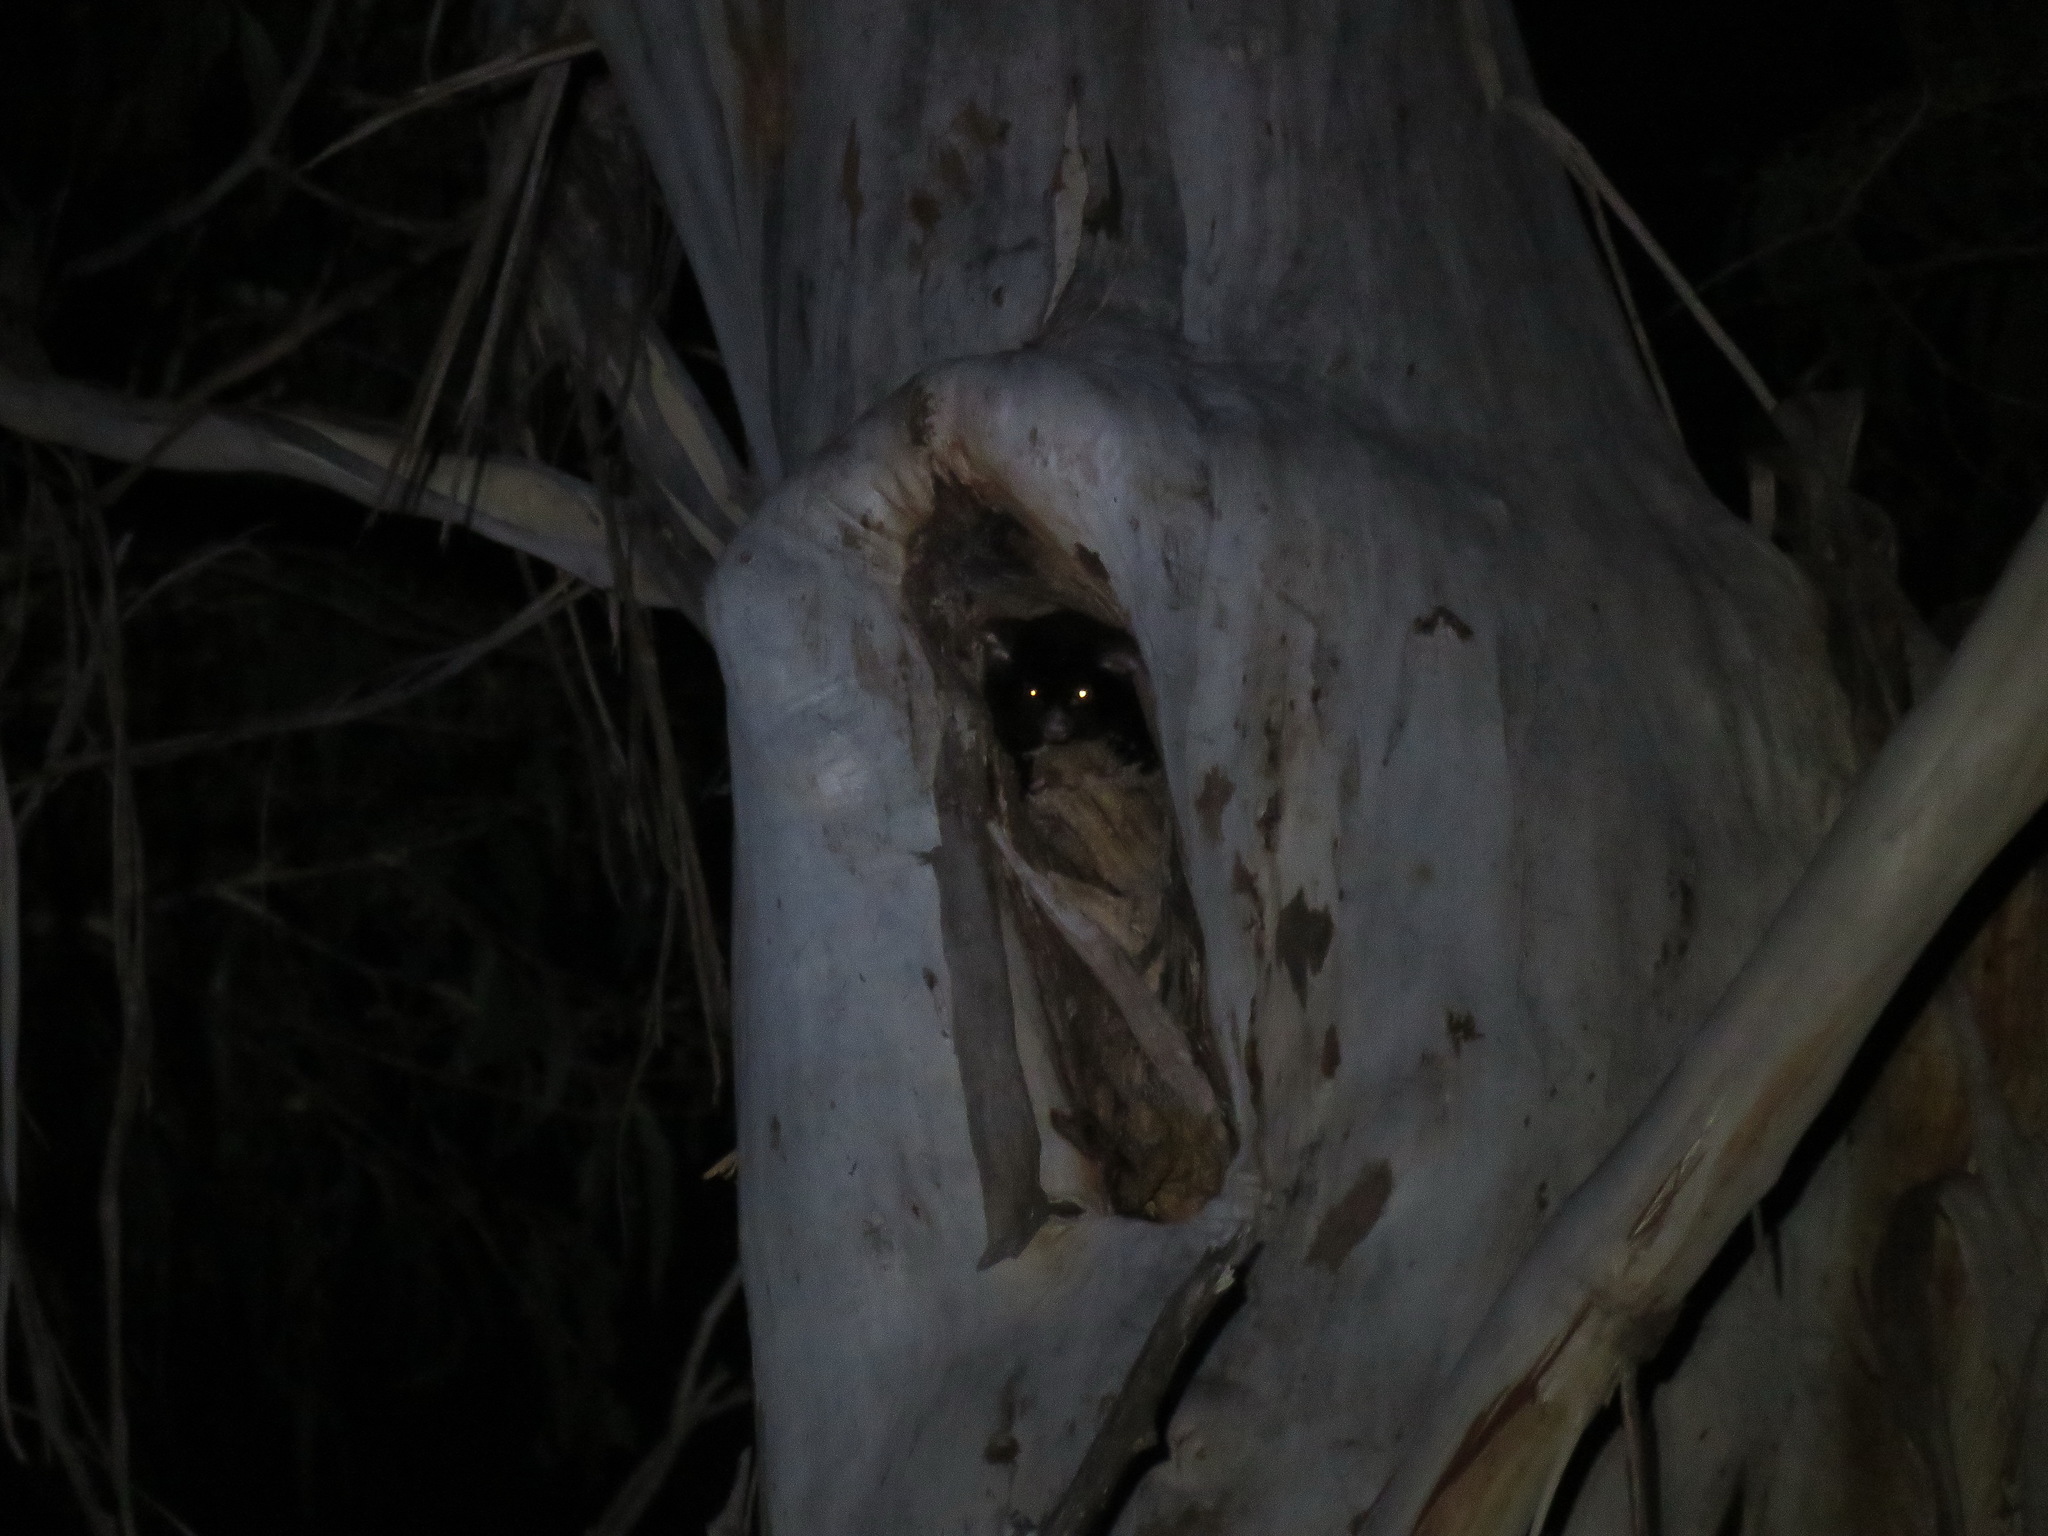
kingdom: Animalia
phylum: Chordata
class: Mammalia
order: Diprotodontia
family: Pseudocheiridae
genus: Petauroides
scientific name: Petauroides volans
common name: Greater glider
